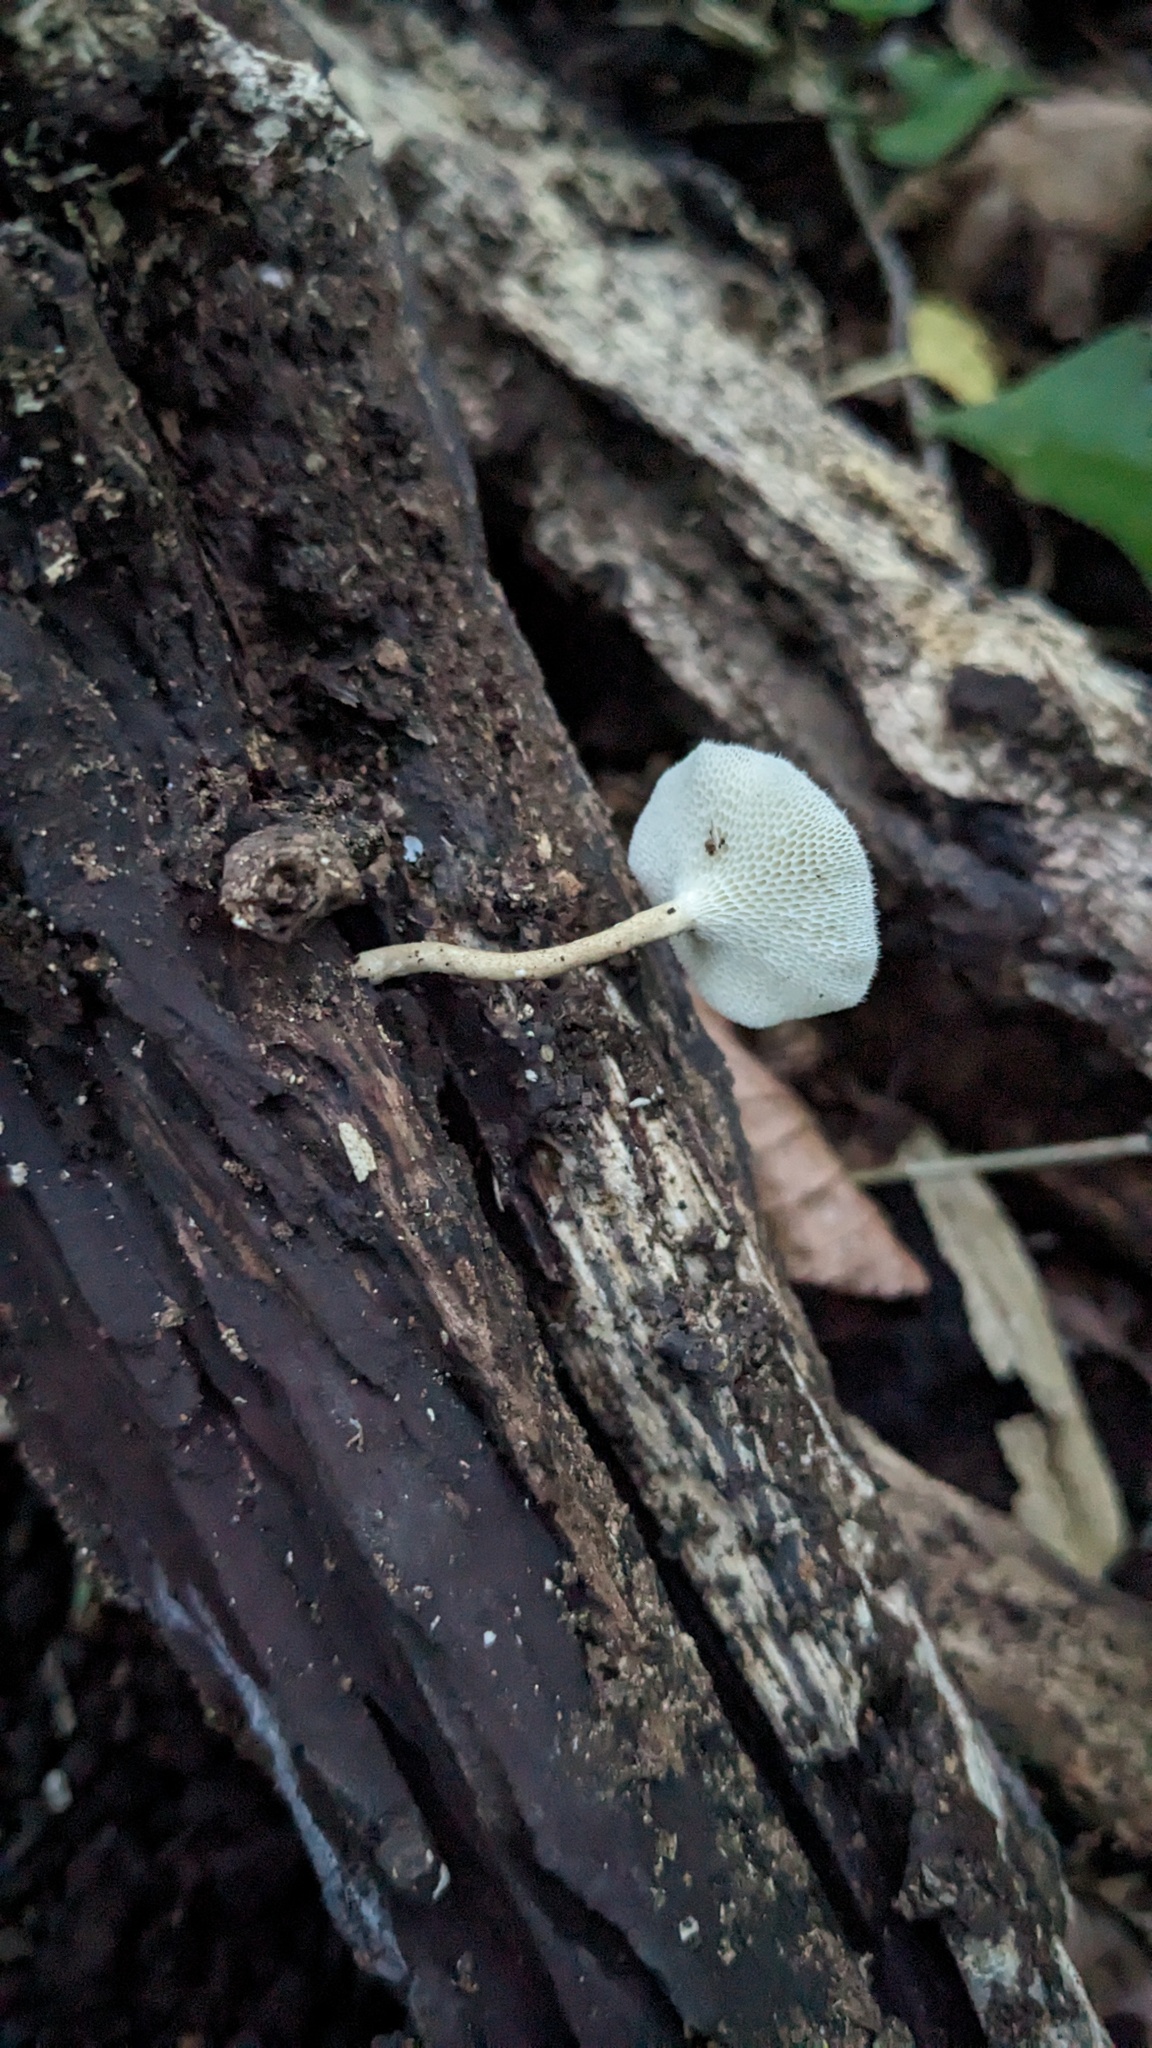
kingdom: Fungi
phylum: Basidiomycota
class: Agaricomycetes
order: Polyporales
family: Polyporaceae
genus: Lentinus
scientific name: Lentinus arcularius
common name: Spring polypore
